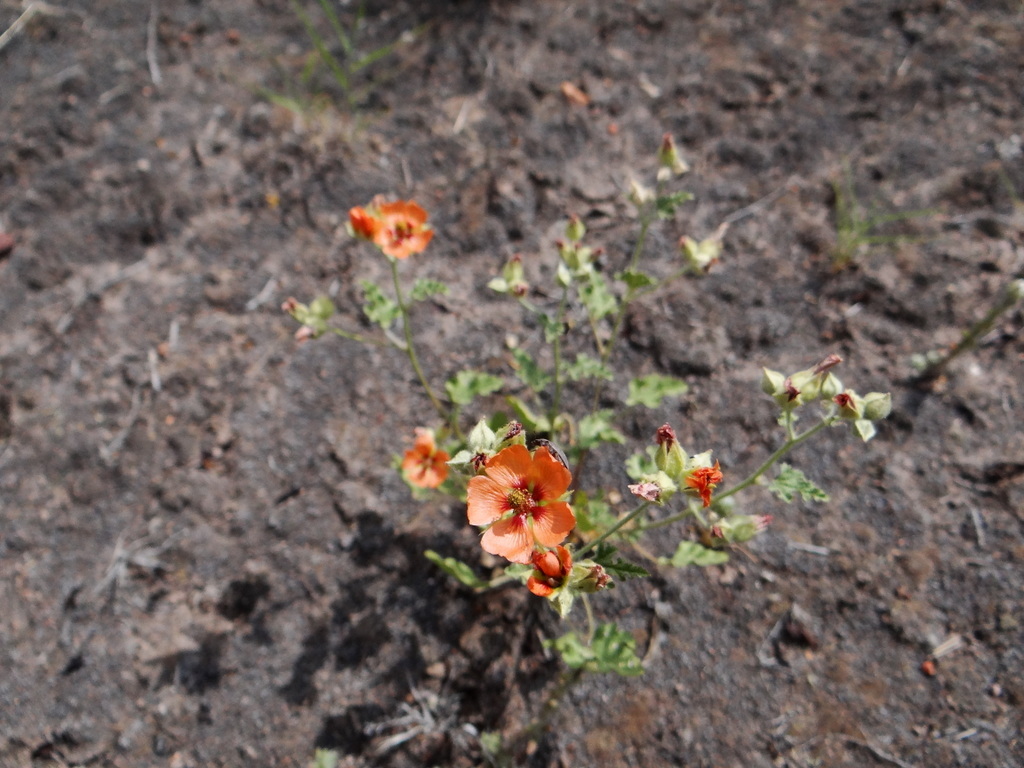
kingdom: Plantae
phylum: Tracheophyta
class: Magnoliopsida
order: Malvales
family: Malvaceae
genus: Sphaeralcea
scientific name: Sphaeralcea miniata
